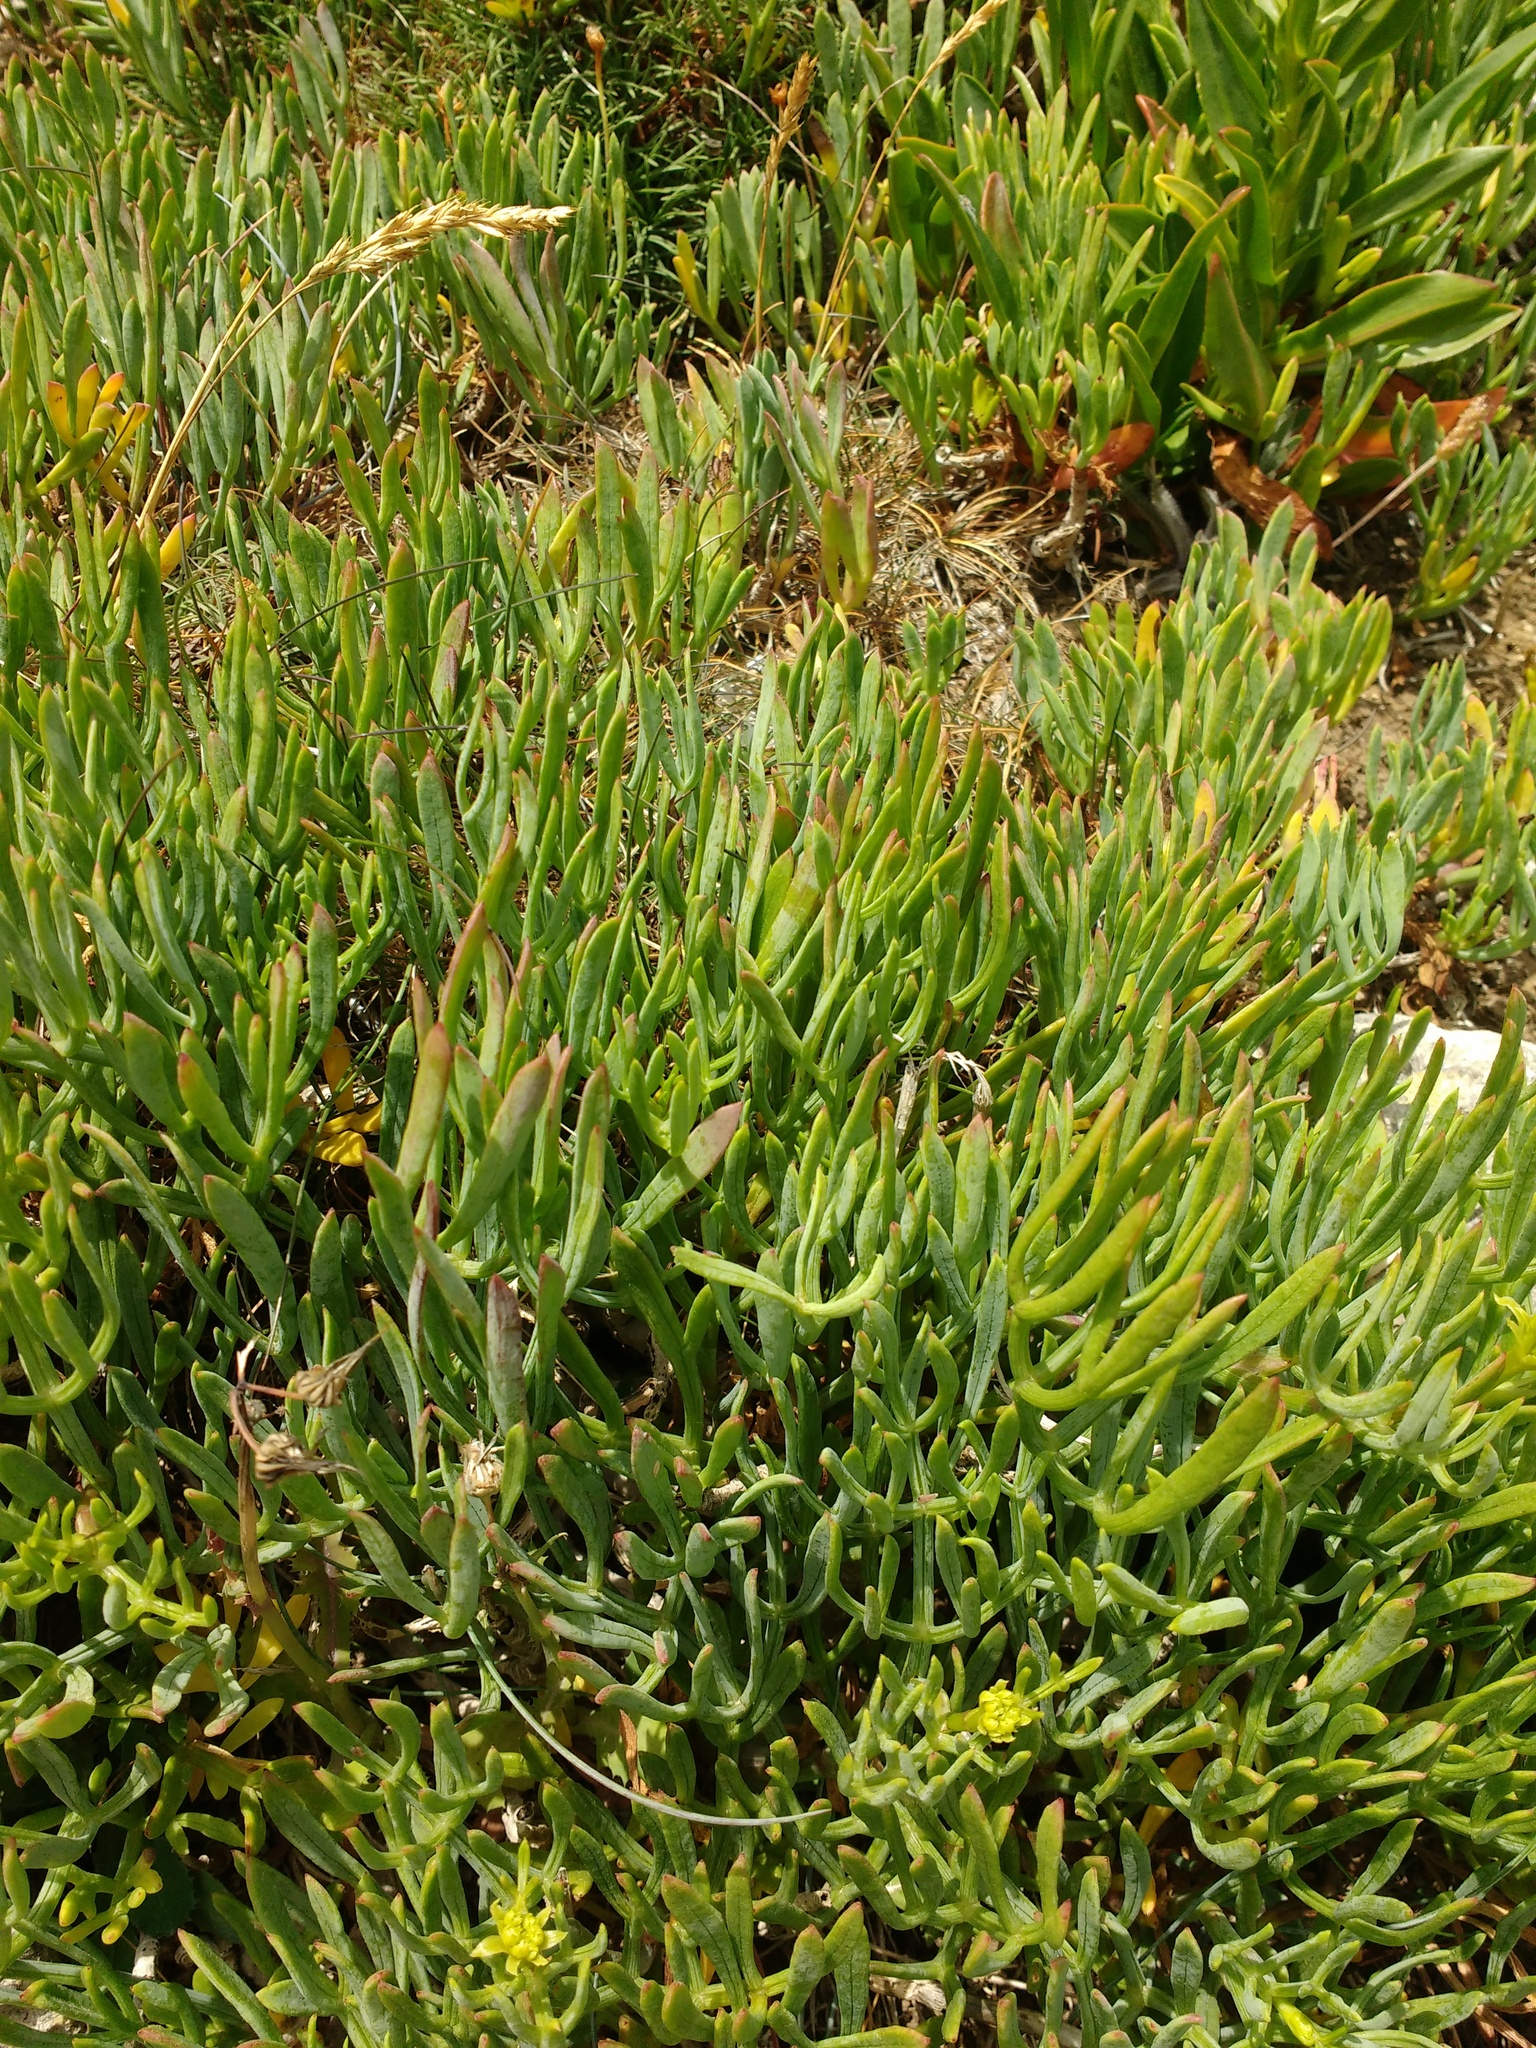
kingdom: Plantae
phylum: Tracheophyta
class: Magnoliopsida
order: Apiales
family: Apiaceae
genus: Crithmum
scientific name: Crithmum maritimum
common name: Rock samphire
